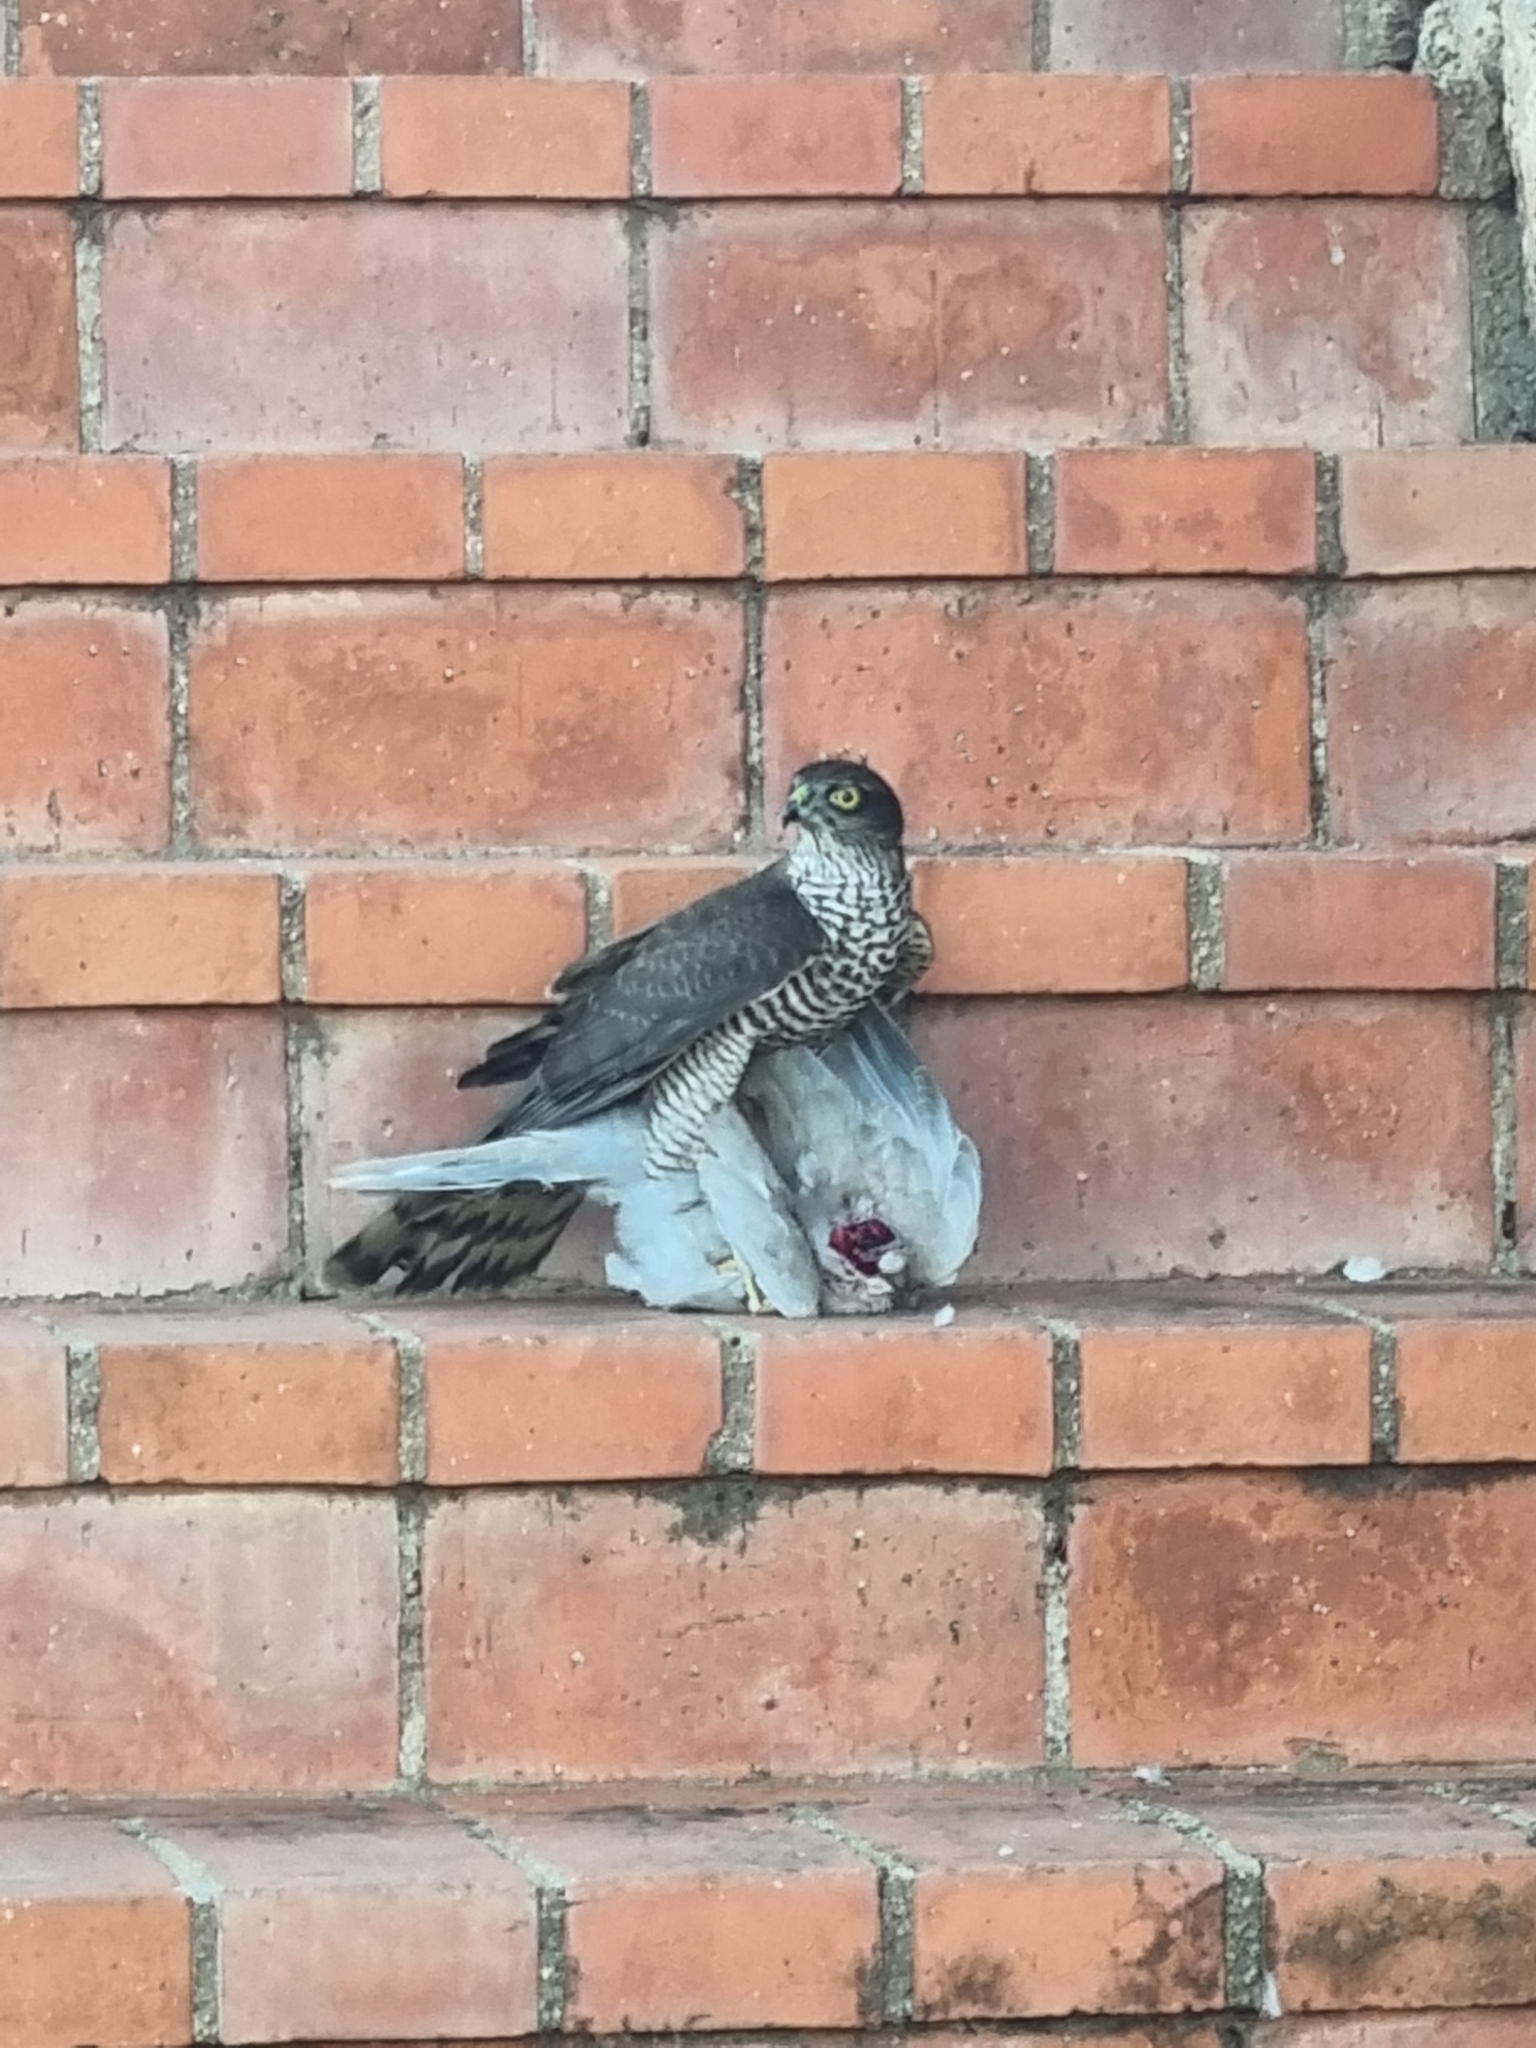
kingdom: Animalia
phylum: Chordata
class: Aves
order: Accipitriformes
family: Accipitridae
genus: Accipiter
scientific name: Accipiter nisus
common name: Eurasian sparrowhawk
